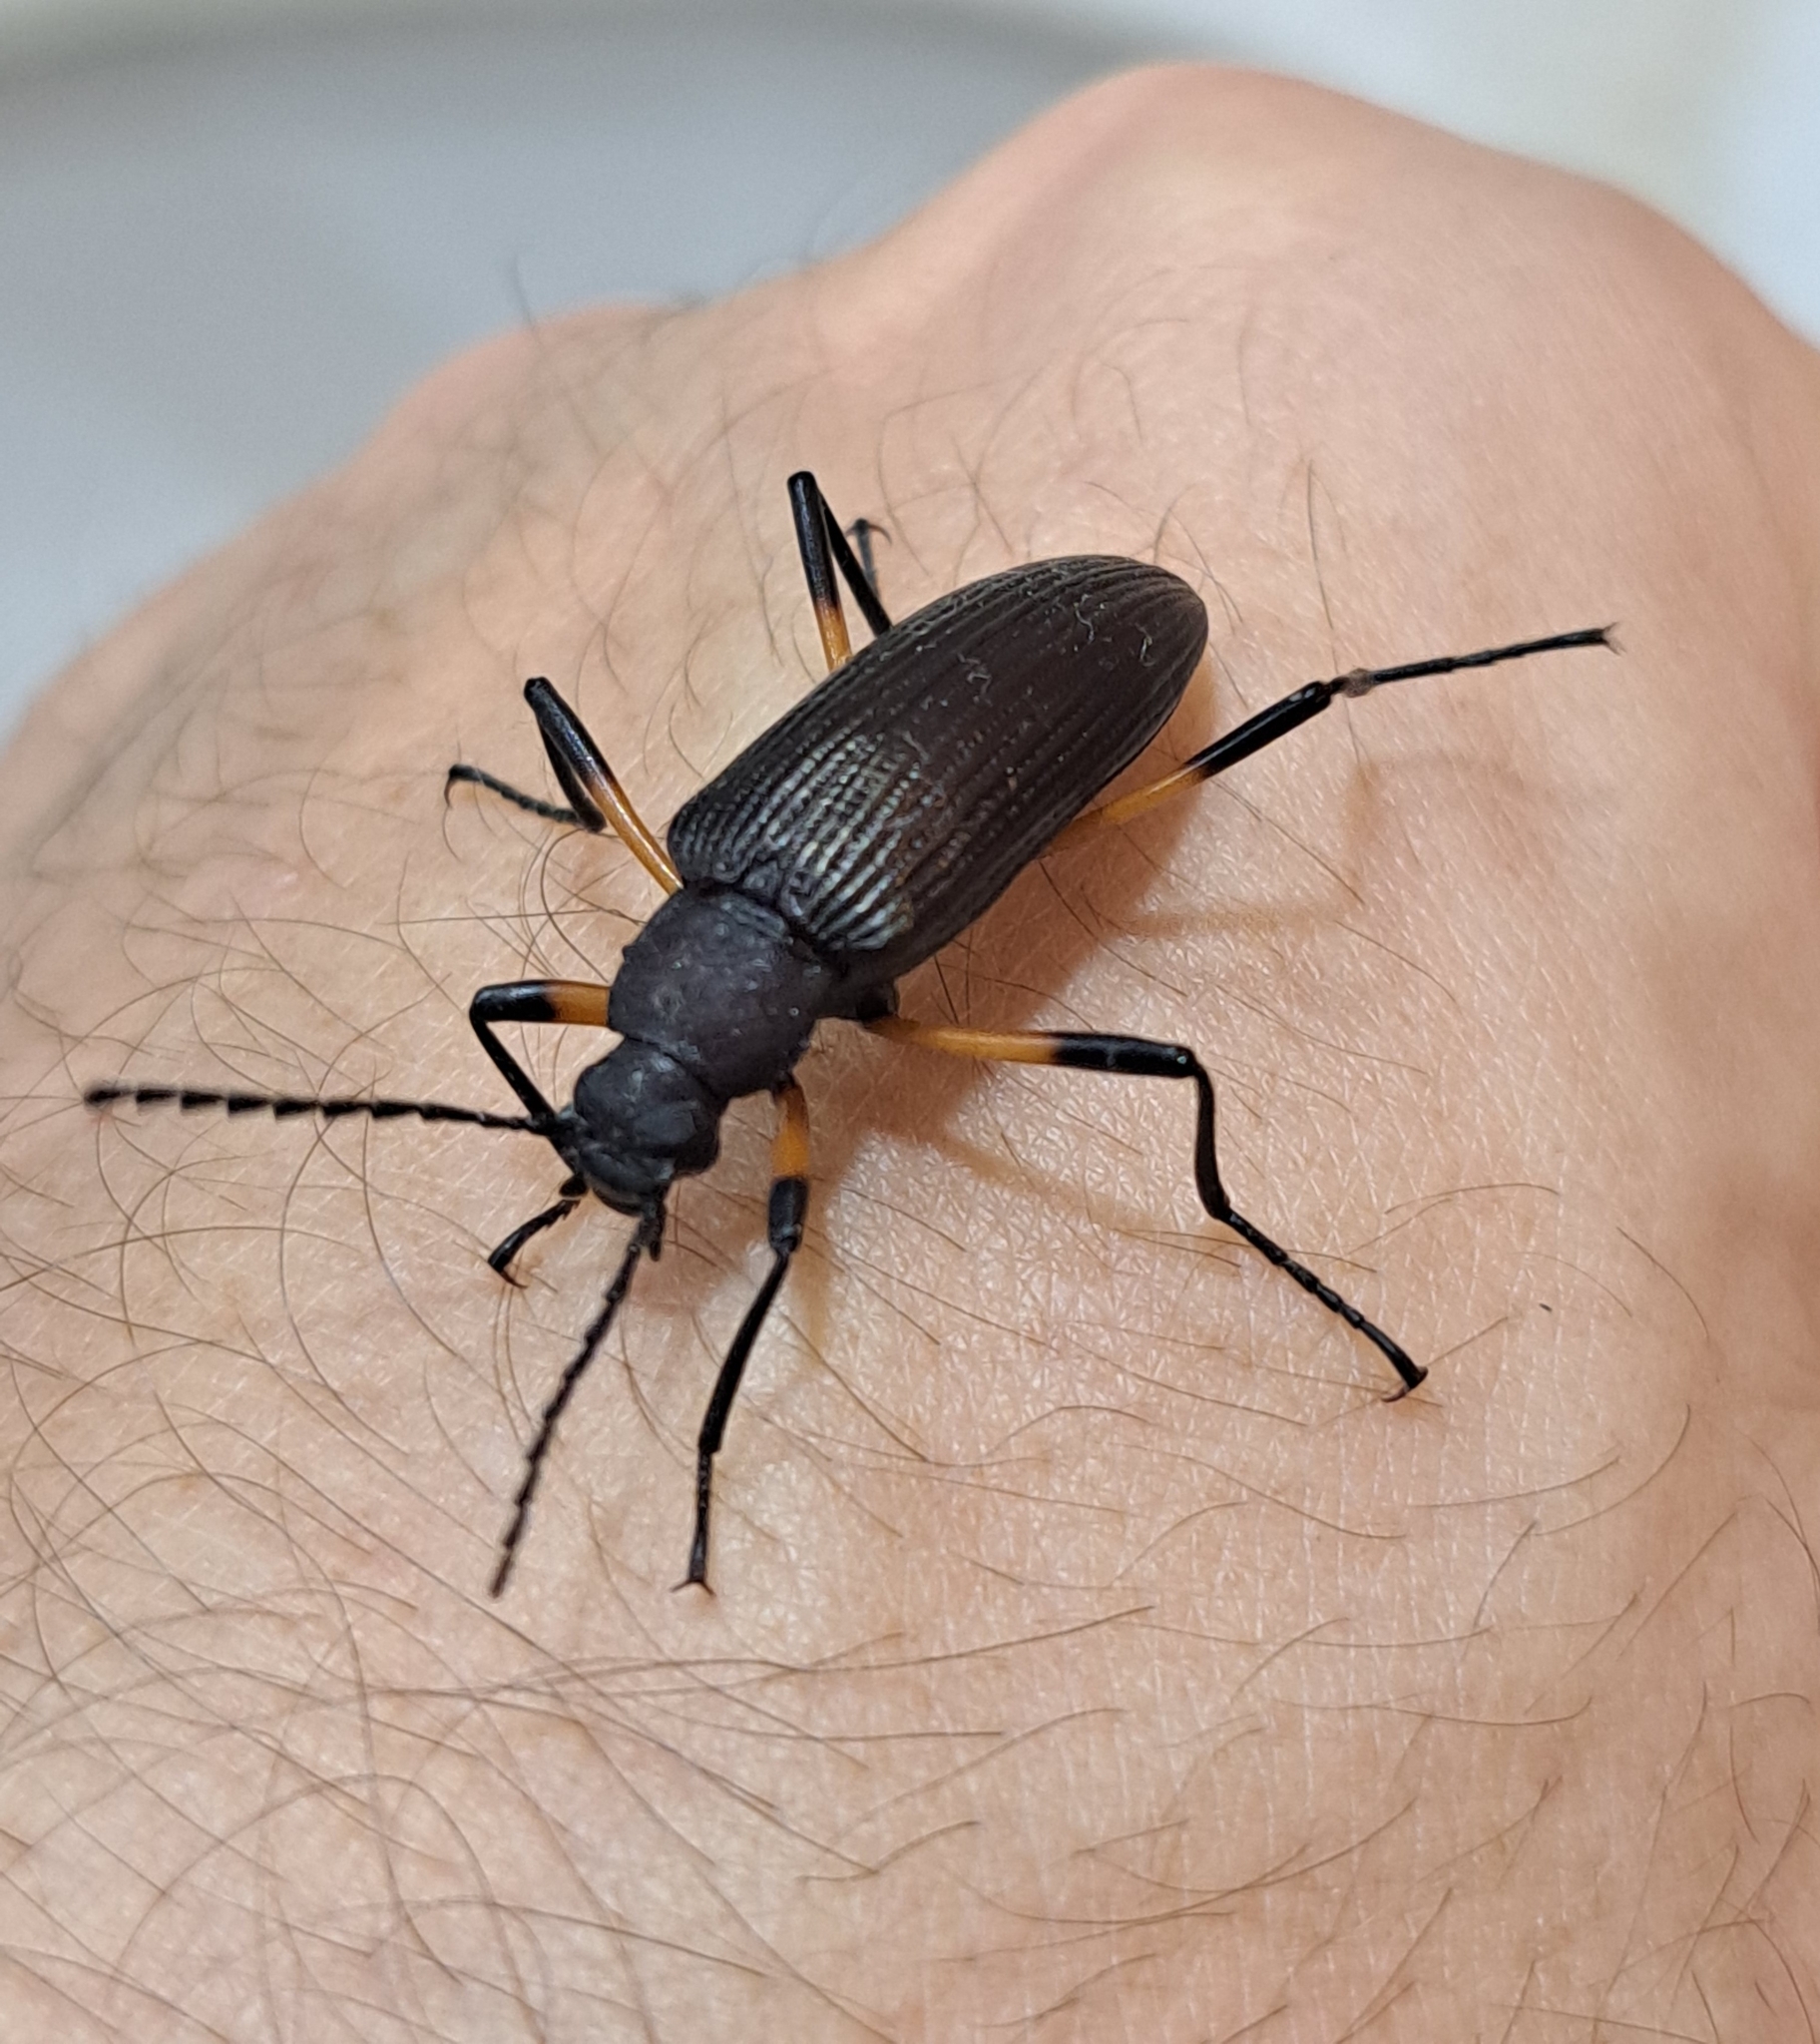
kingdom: Animalia
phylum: Arthropoda
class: Insecta
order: Coleoptera
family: Tenebrionidae
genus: Oploptera
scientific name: Oploptera
